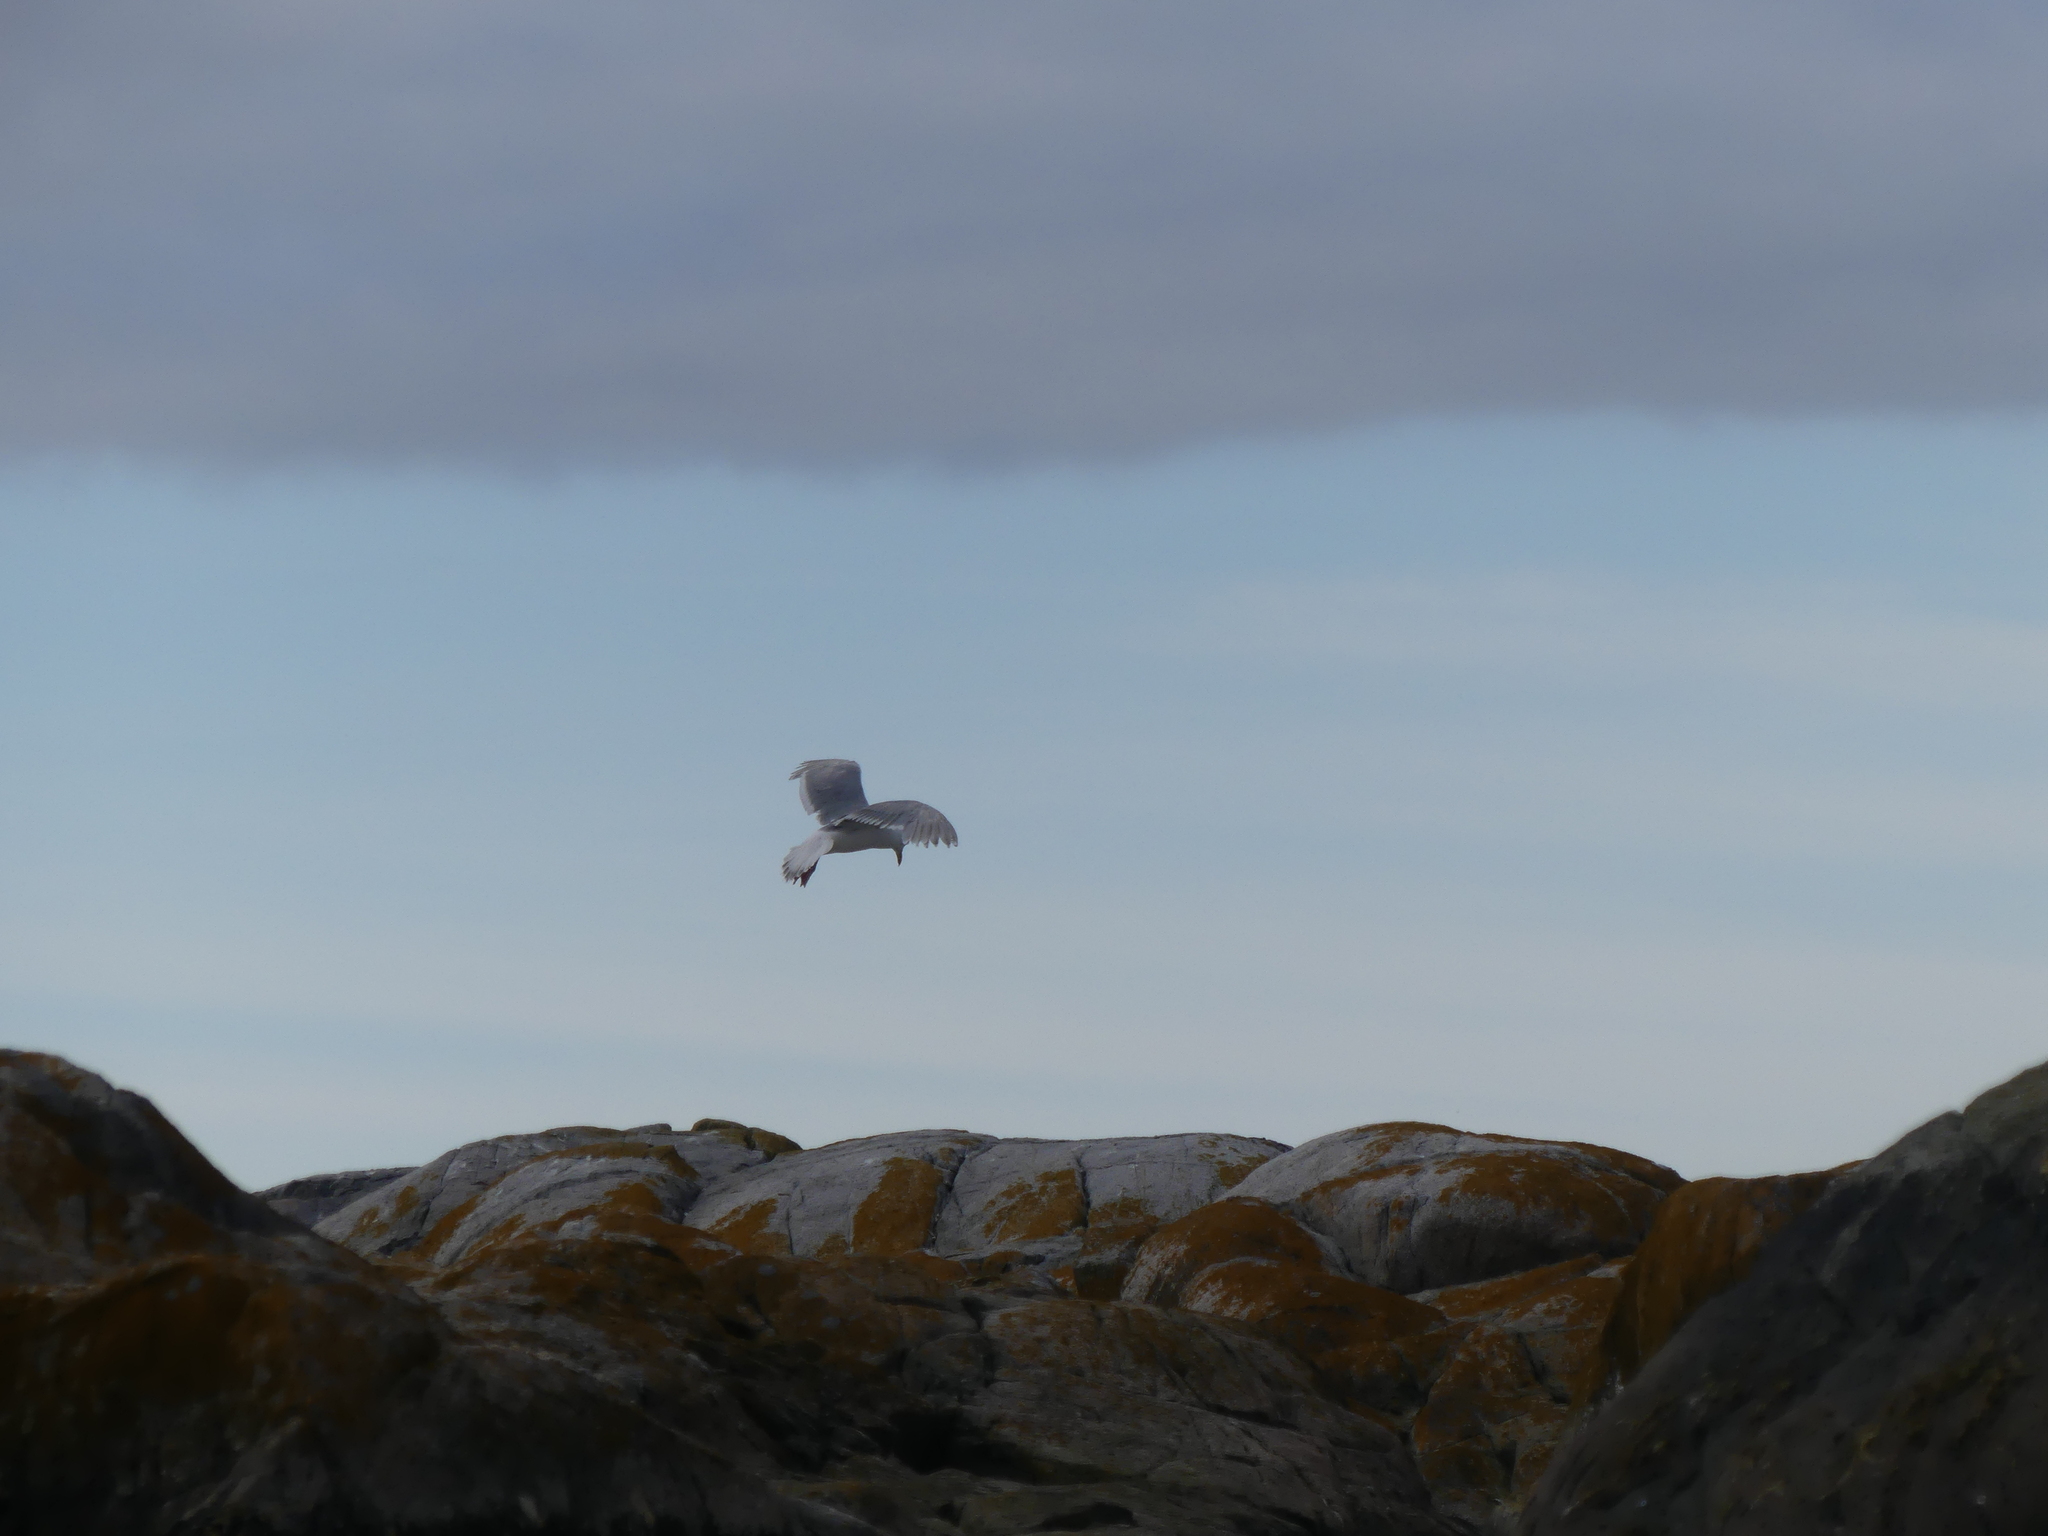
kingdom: Animalia
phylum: Chordata
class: Aves
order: Charadriiformes
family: Laridae
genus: Larus
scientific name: Larus glaucescens
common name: Glaucous-winged gull
